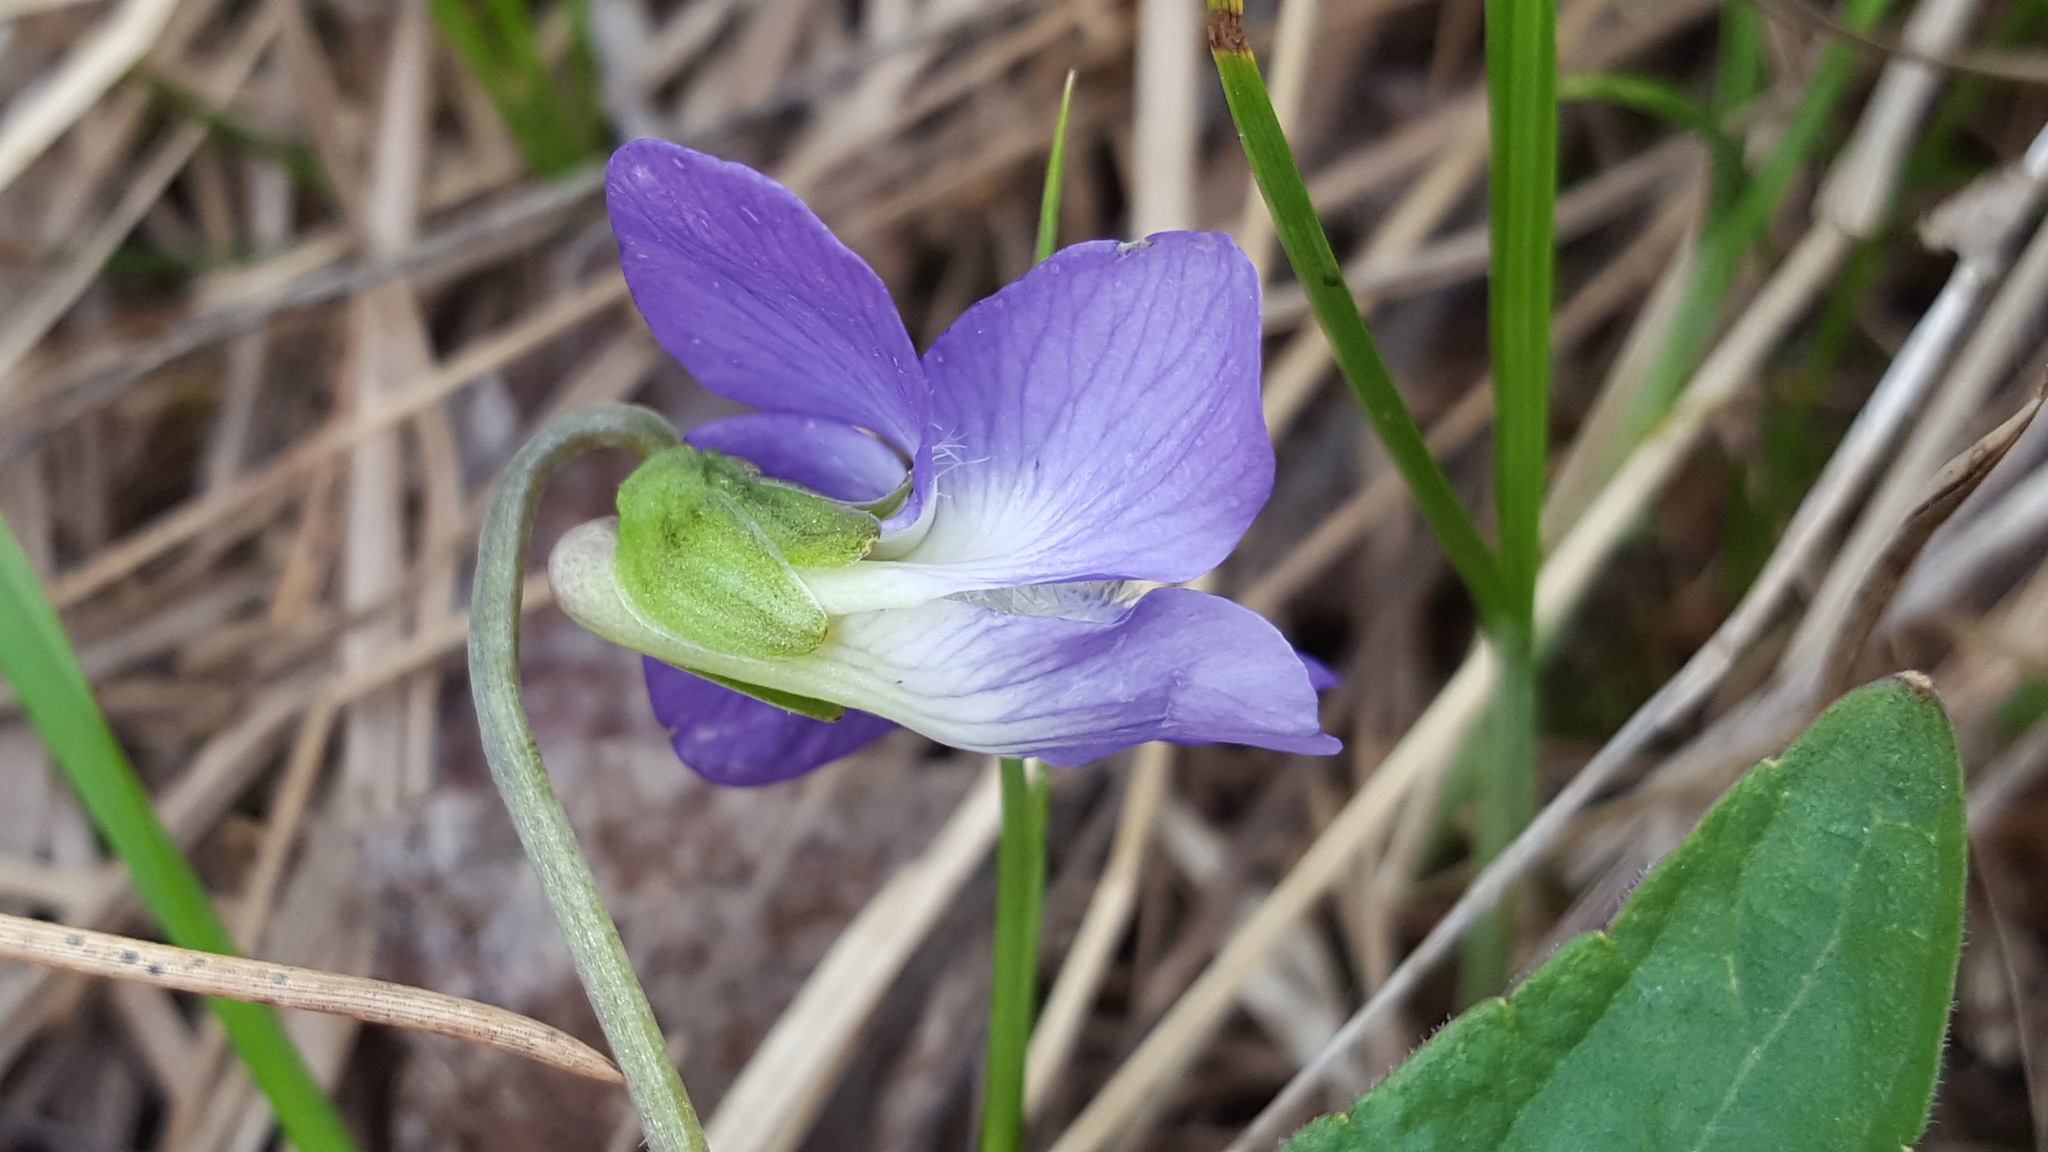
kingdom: Plantae
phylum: Tracheophyta
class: Magnoliopsida
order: Malpighiales
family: Violaceae
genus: Viola
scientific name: Viola novae-angliae
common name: New england blue violet
